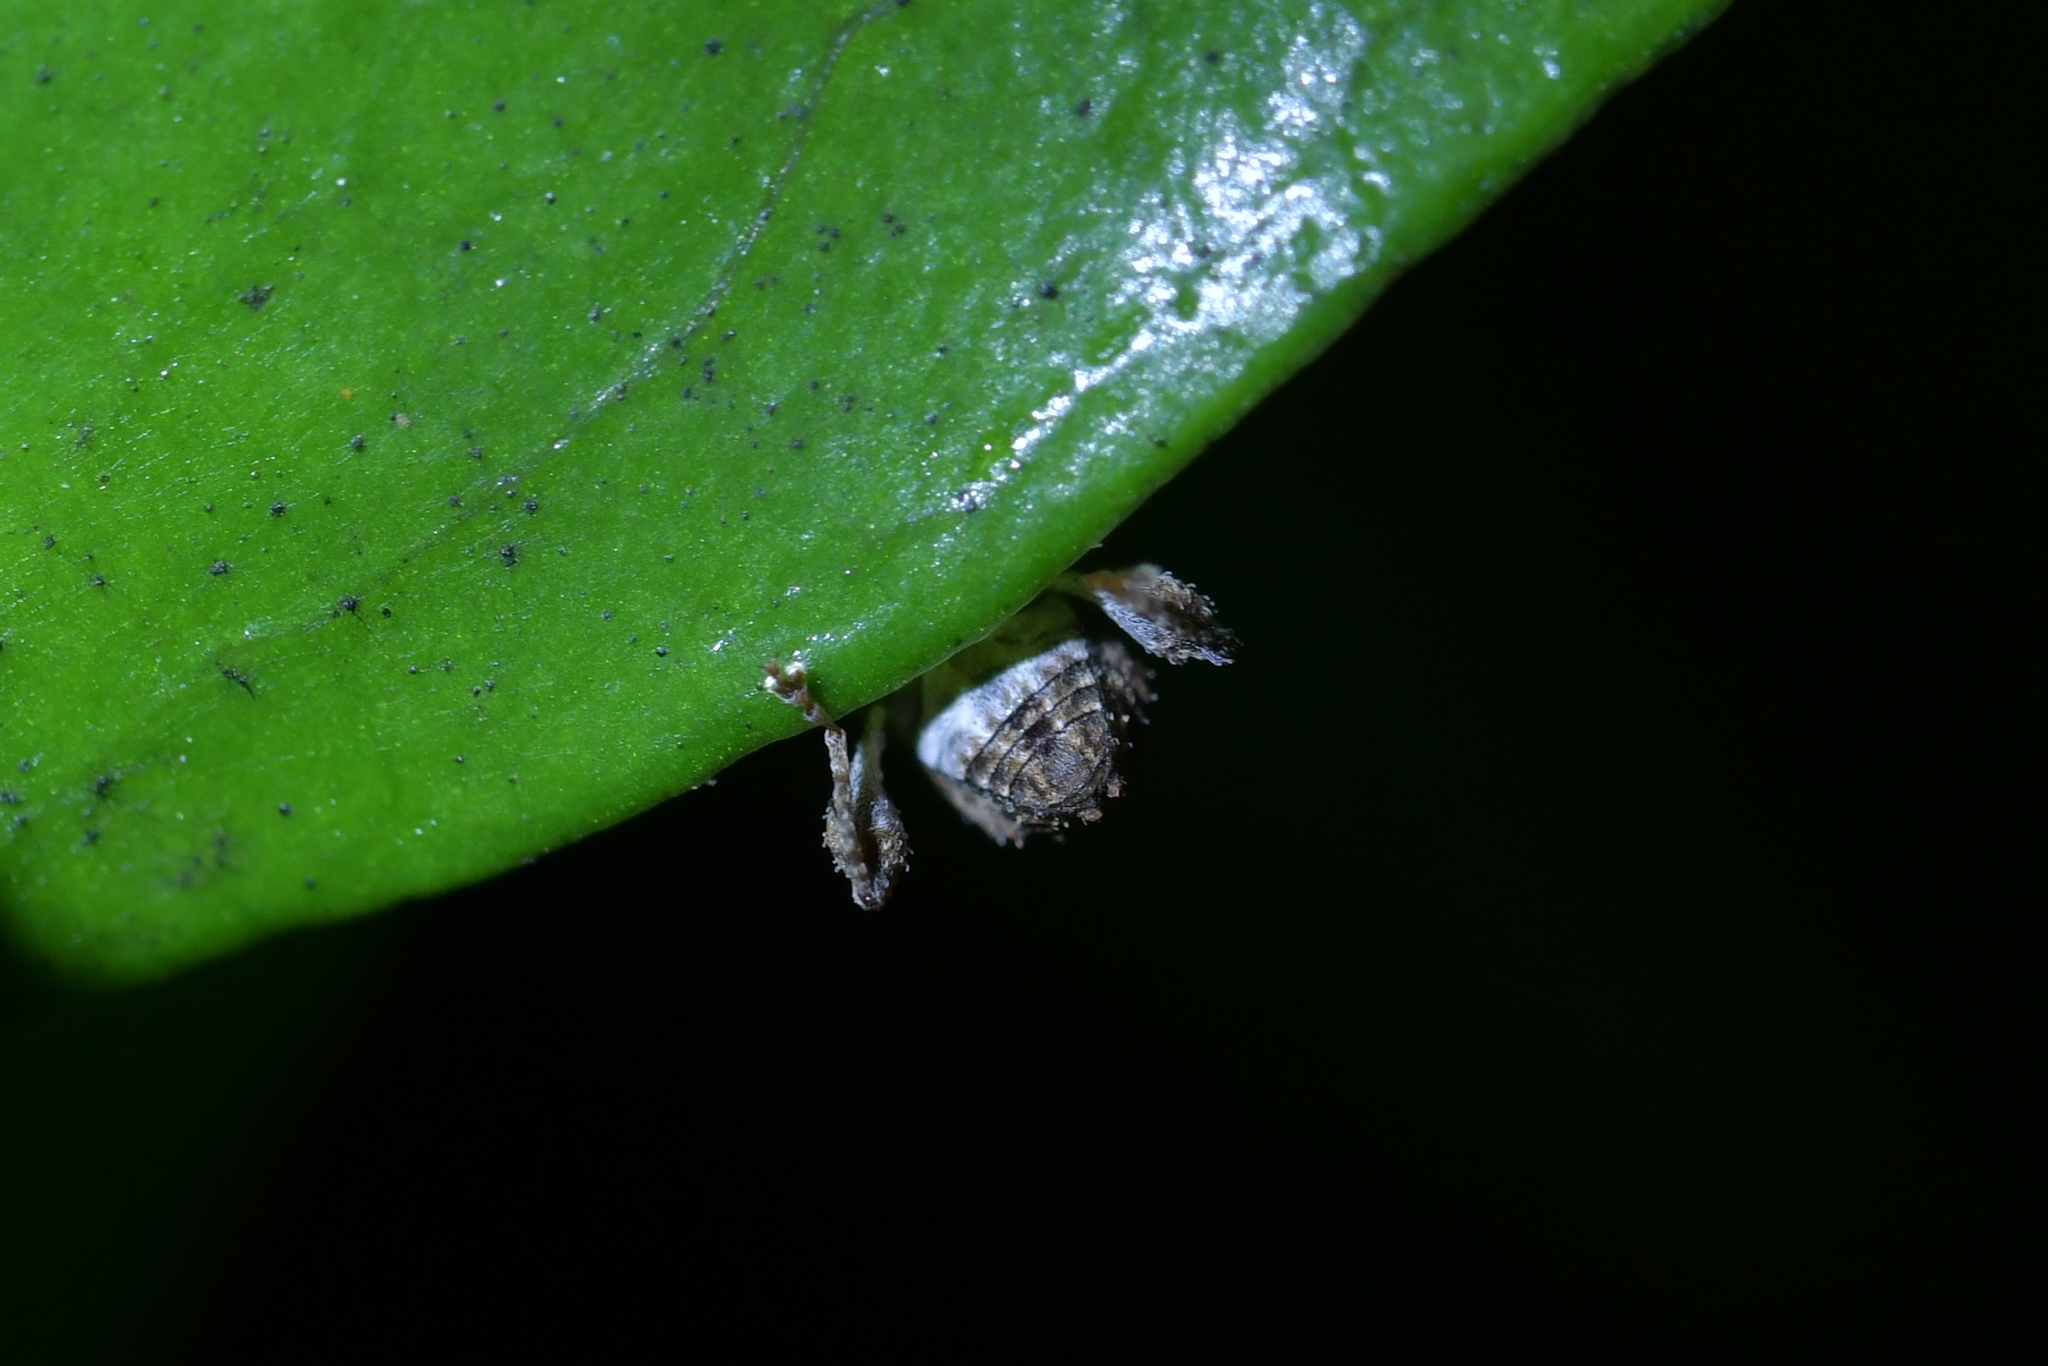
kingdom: Animalia
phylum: Arthropoda
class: Insecta
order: Coleoptera
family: Curculionidae
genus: Stephanorrhynchus
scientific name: Stephanorrhynchus aper
